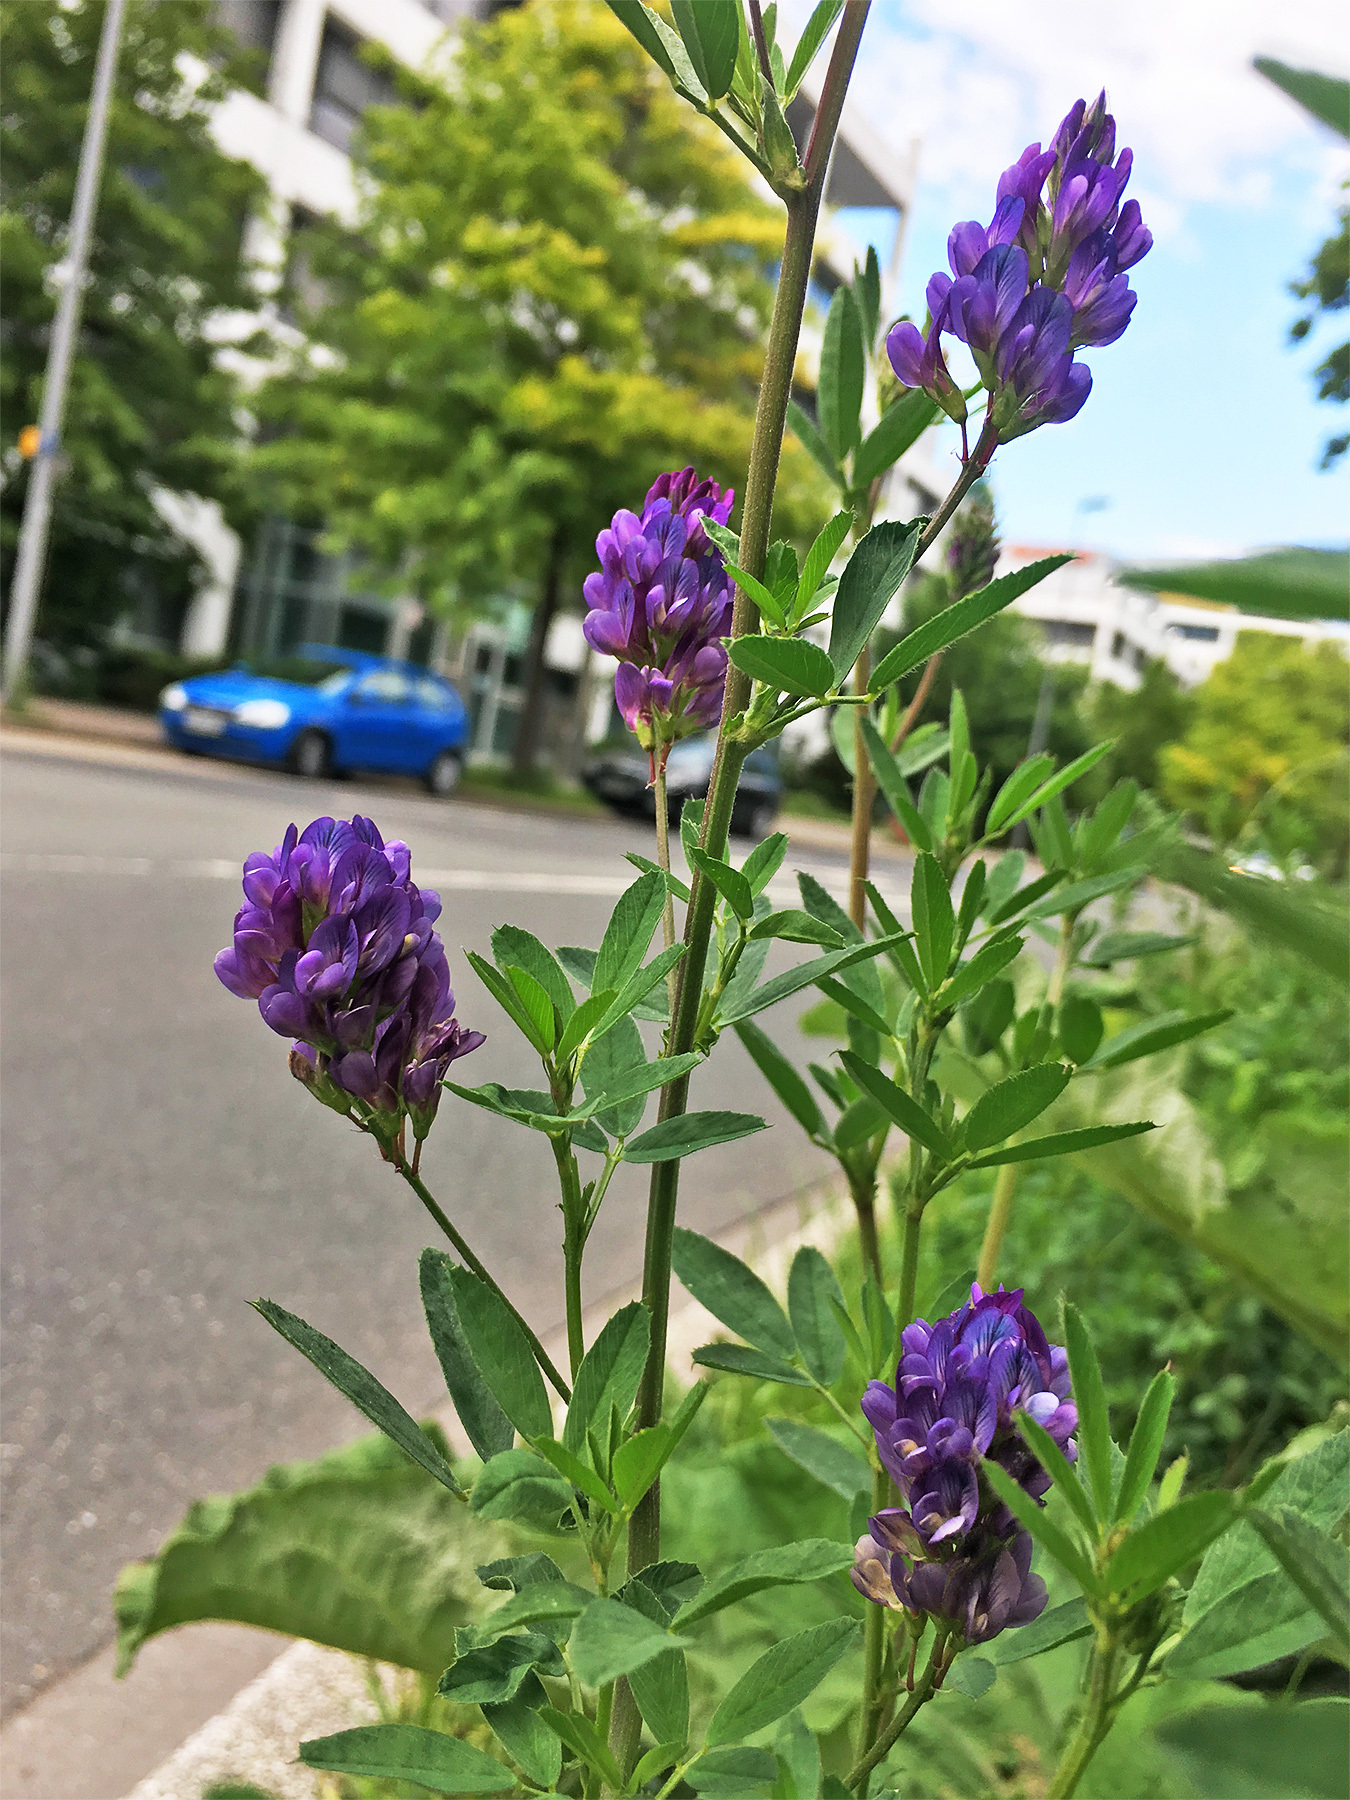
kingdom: Plantae
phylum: Tracheophyta
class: Magnoliopsida
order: Fabales
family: Fabaceae
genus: Medicago
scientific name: Medicago varia
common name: Sand lucerne
